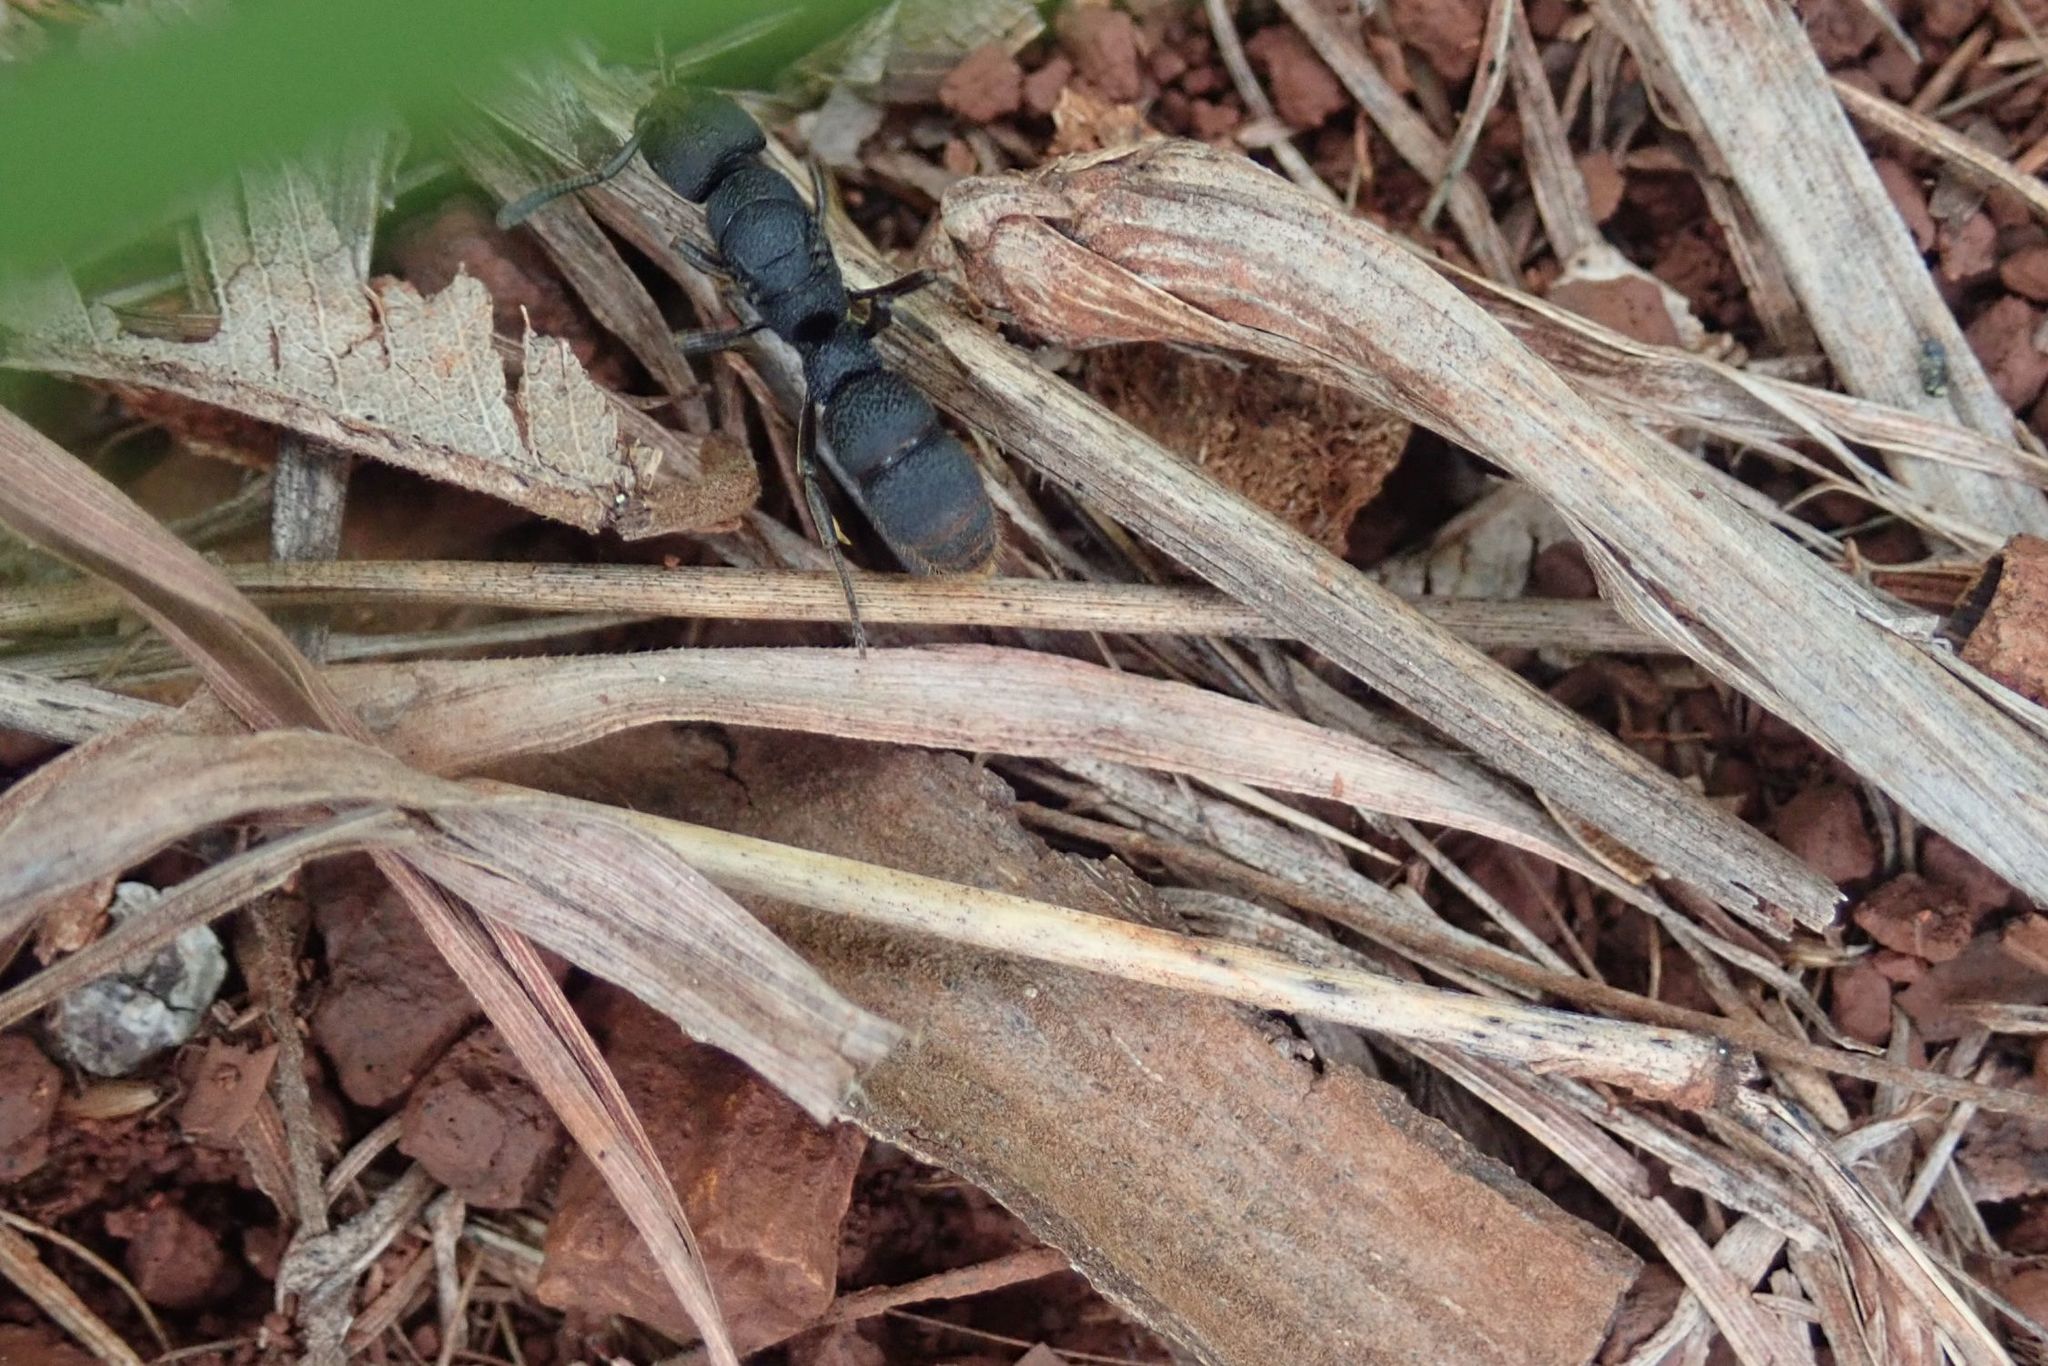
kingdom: Animalia
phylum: Arthropoda
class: Insecta
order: Hymenoptera
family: Formicidae
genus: Bothroponera
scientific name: Bothroponera cariosa
